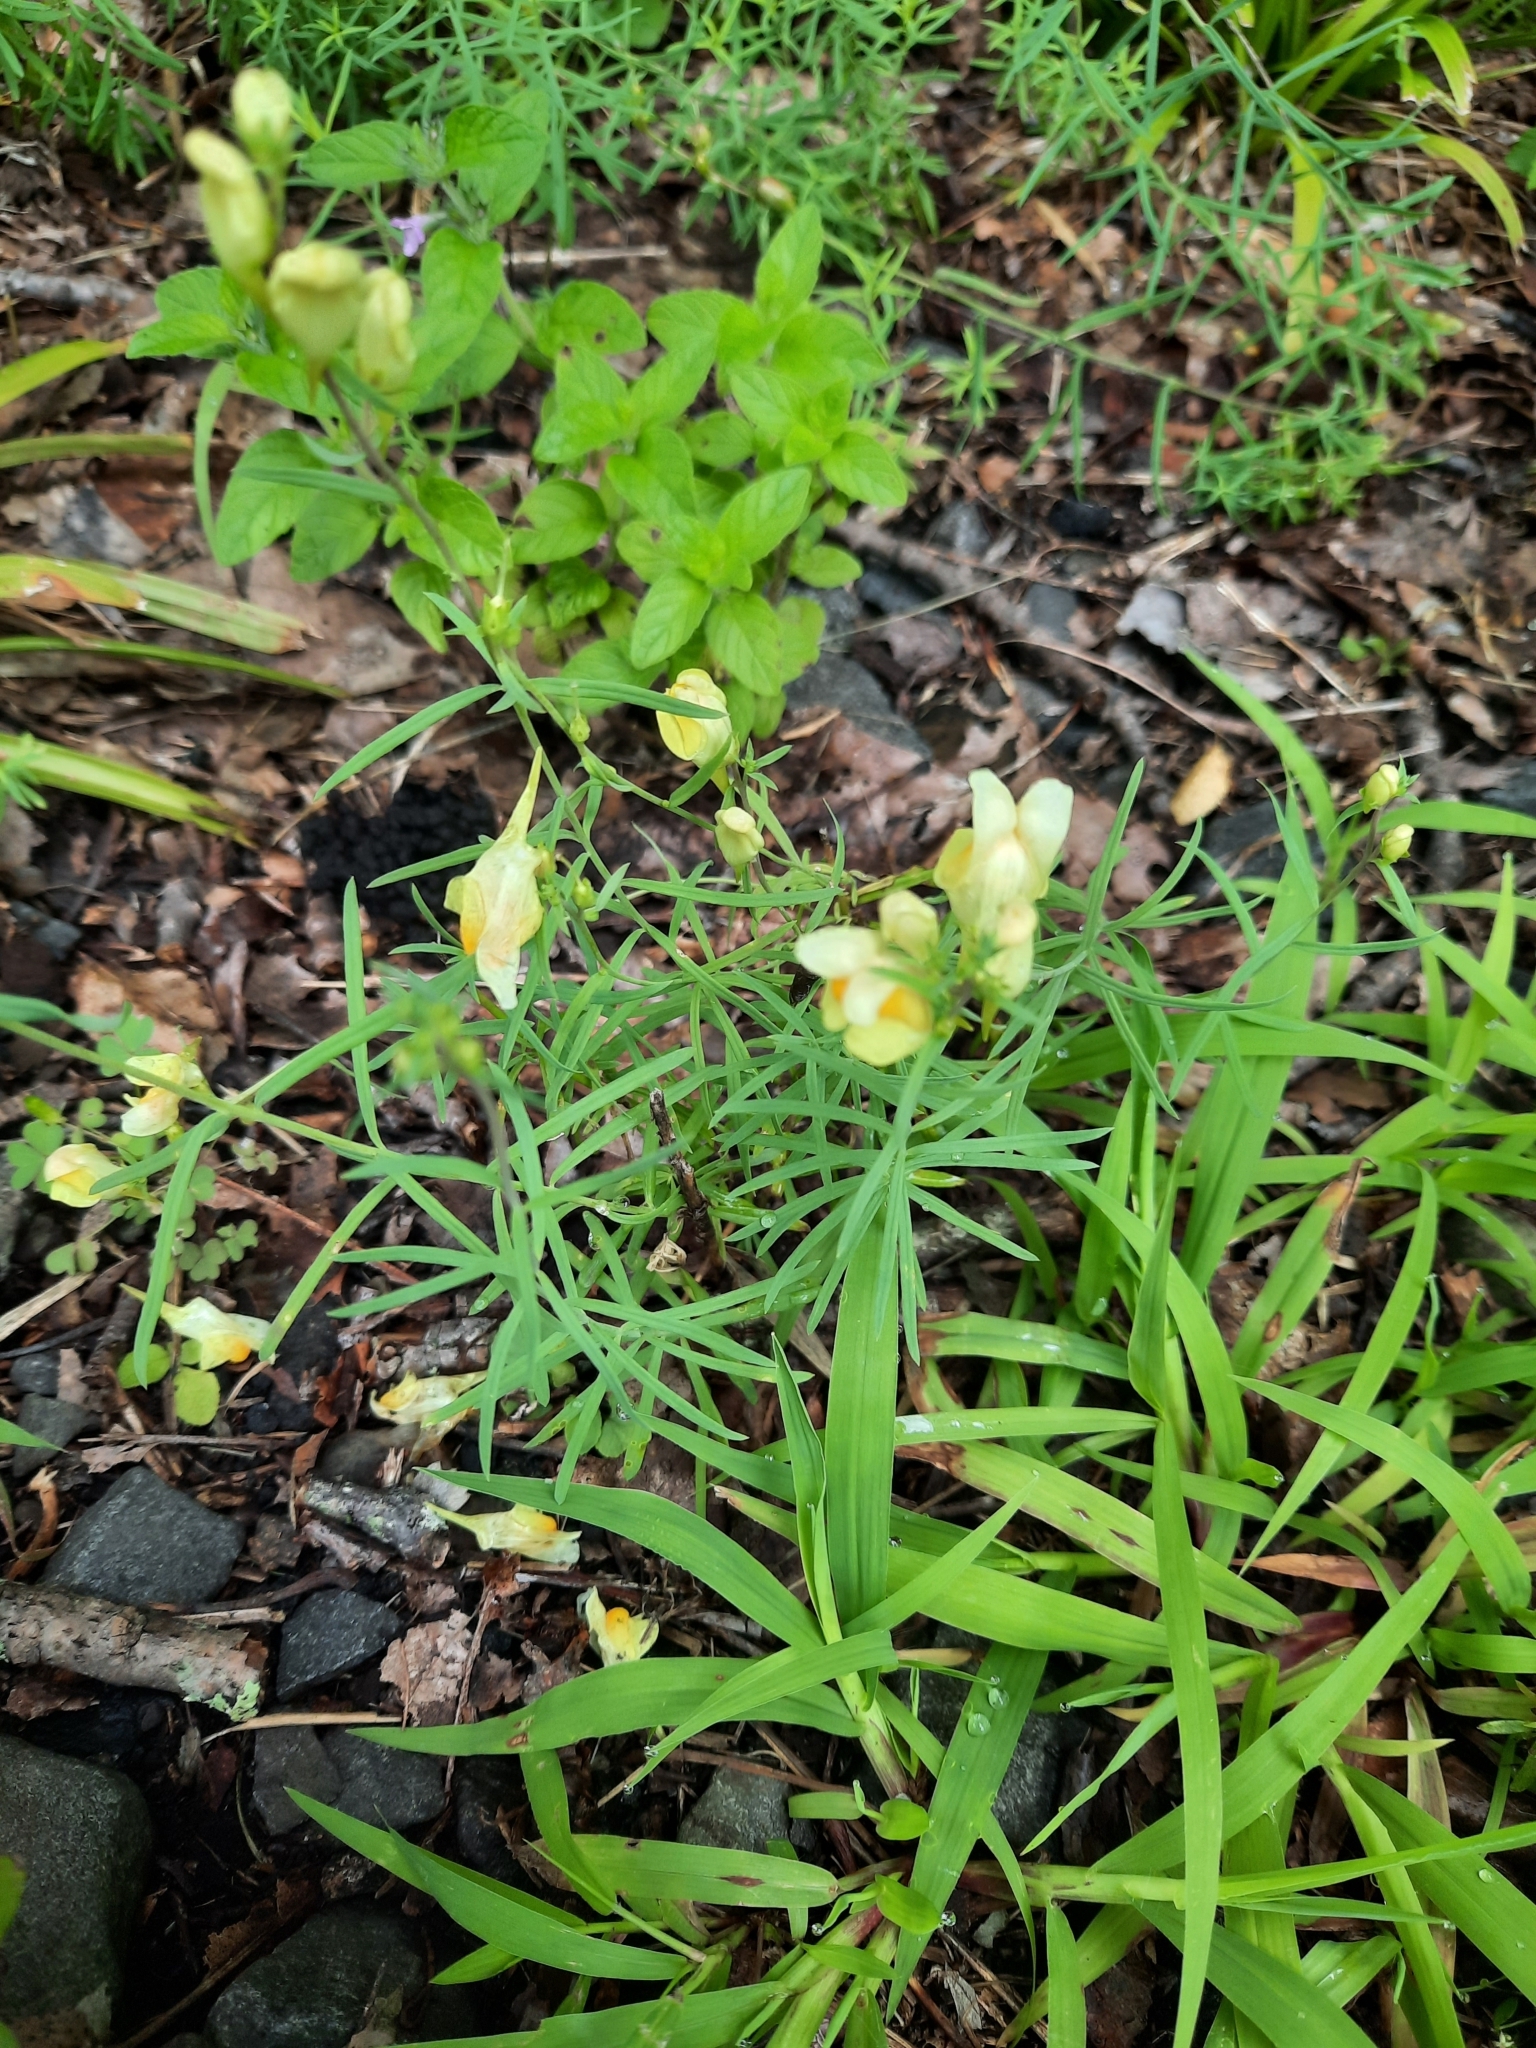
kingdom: Plantae
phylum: Tracheophyta
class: Magnoliopsida
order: Lamiales
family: Plantaginaceae
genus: Linaria
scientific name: Linaria vulgaris
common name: Butter and eggs
